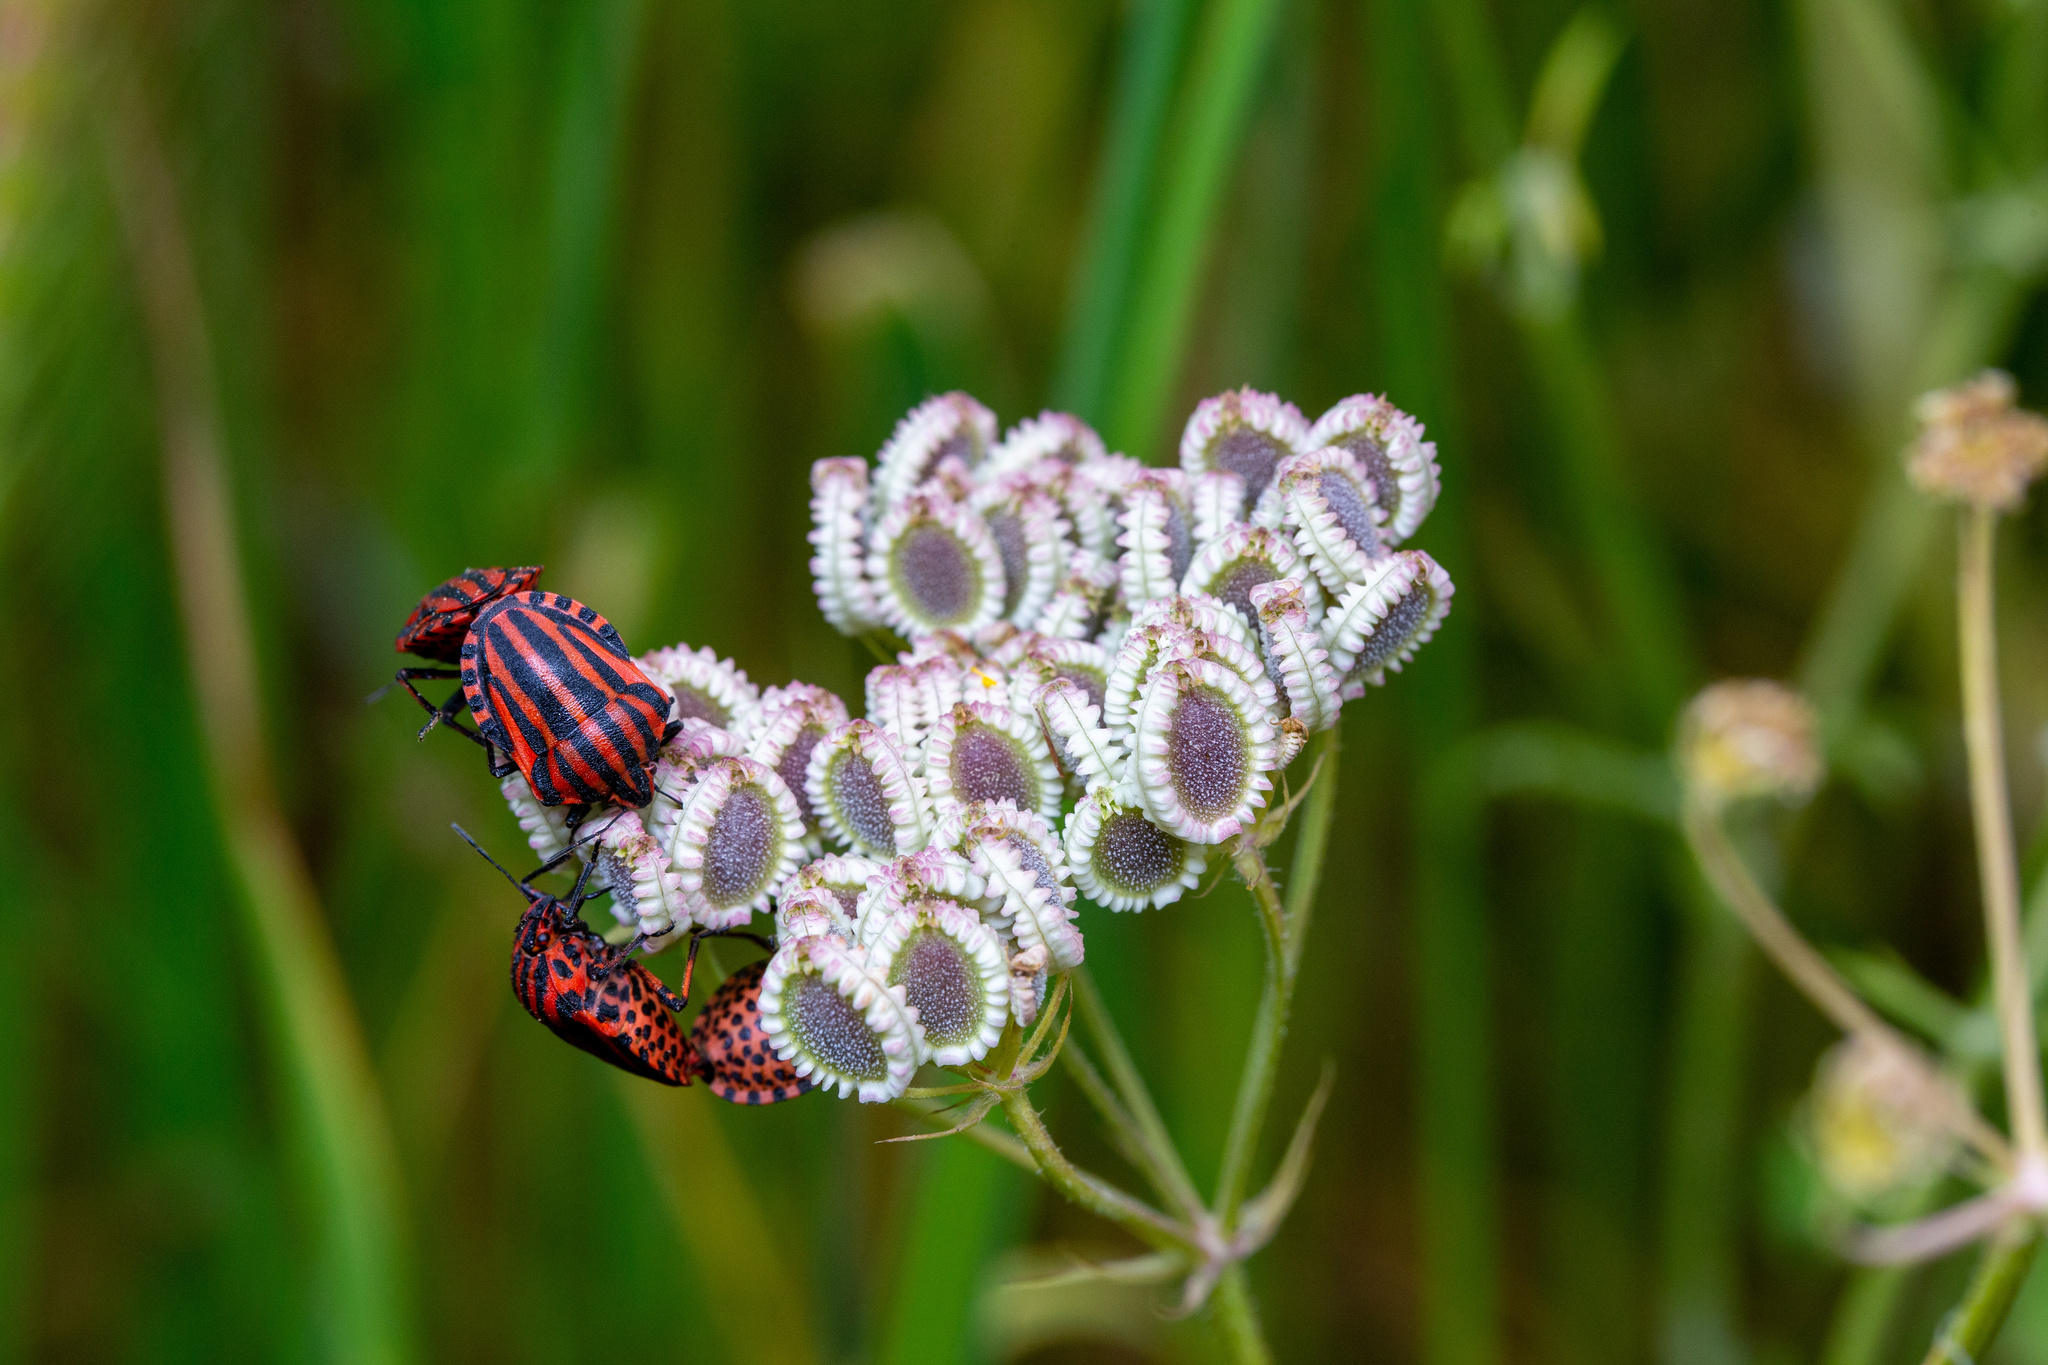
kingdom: Animalia
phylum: Arthropoda
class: Insecta
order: Hemiptera
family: Pentatomidae
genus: Graphosoma
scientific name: Graphosoma italicum
